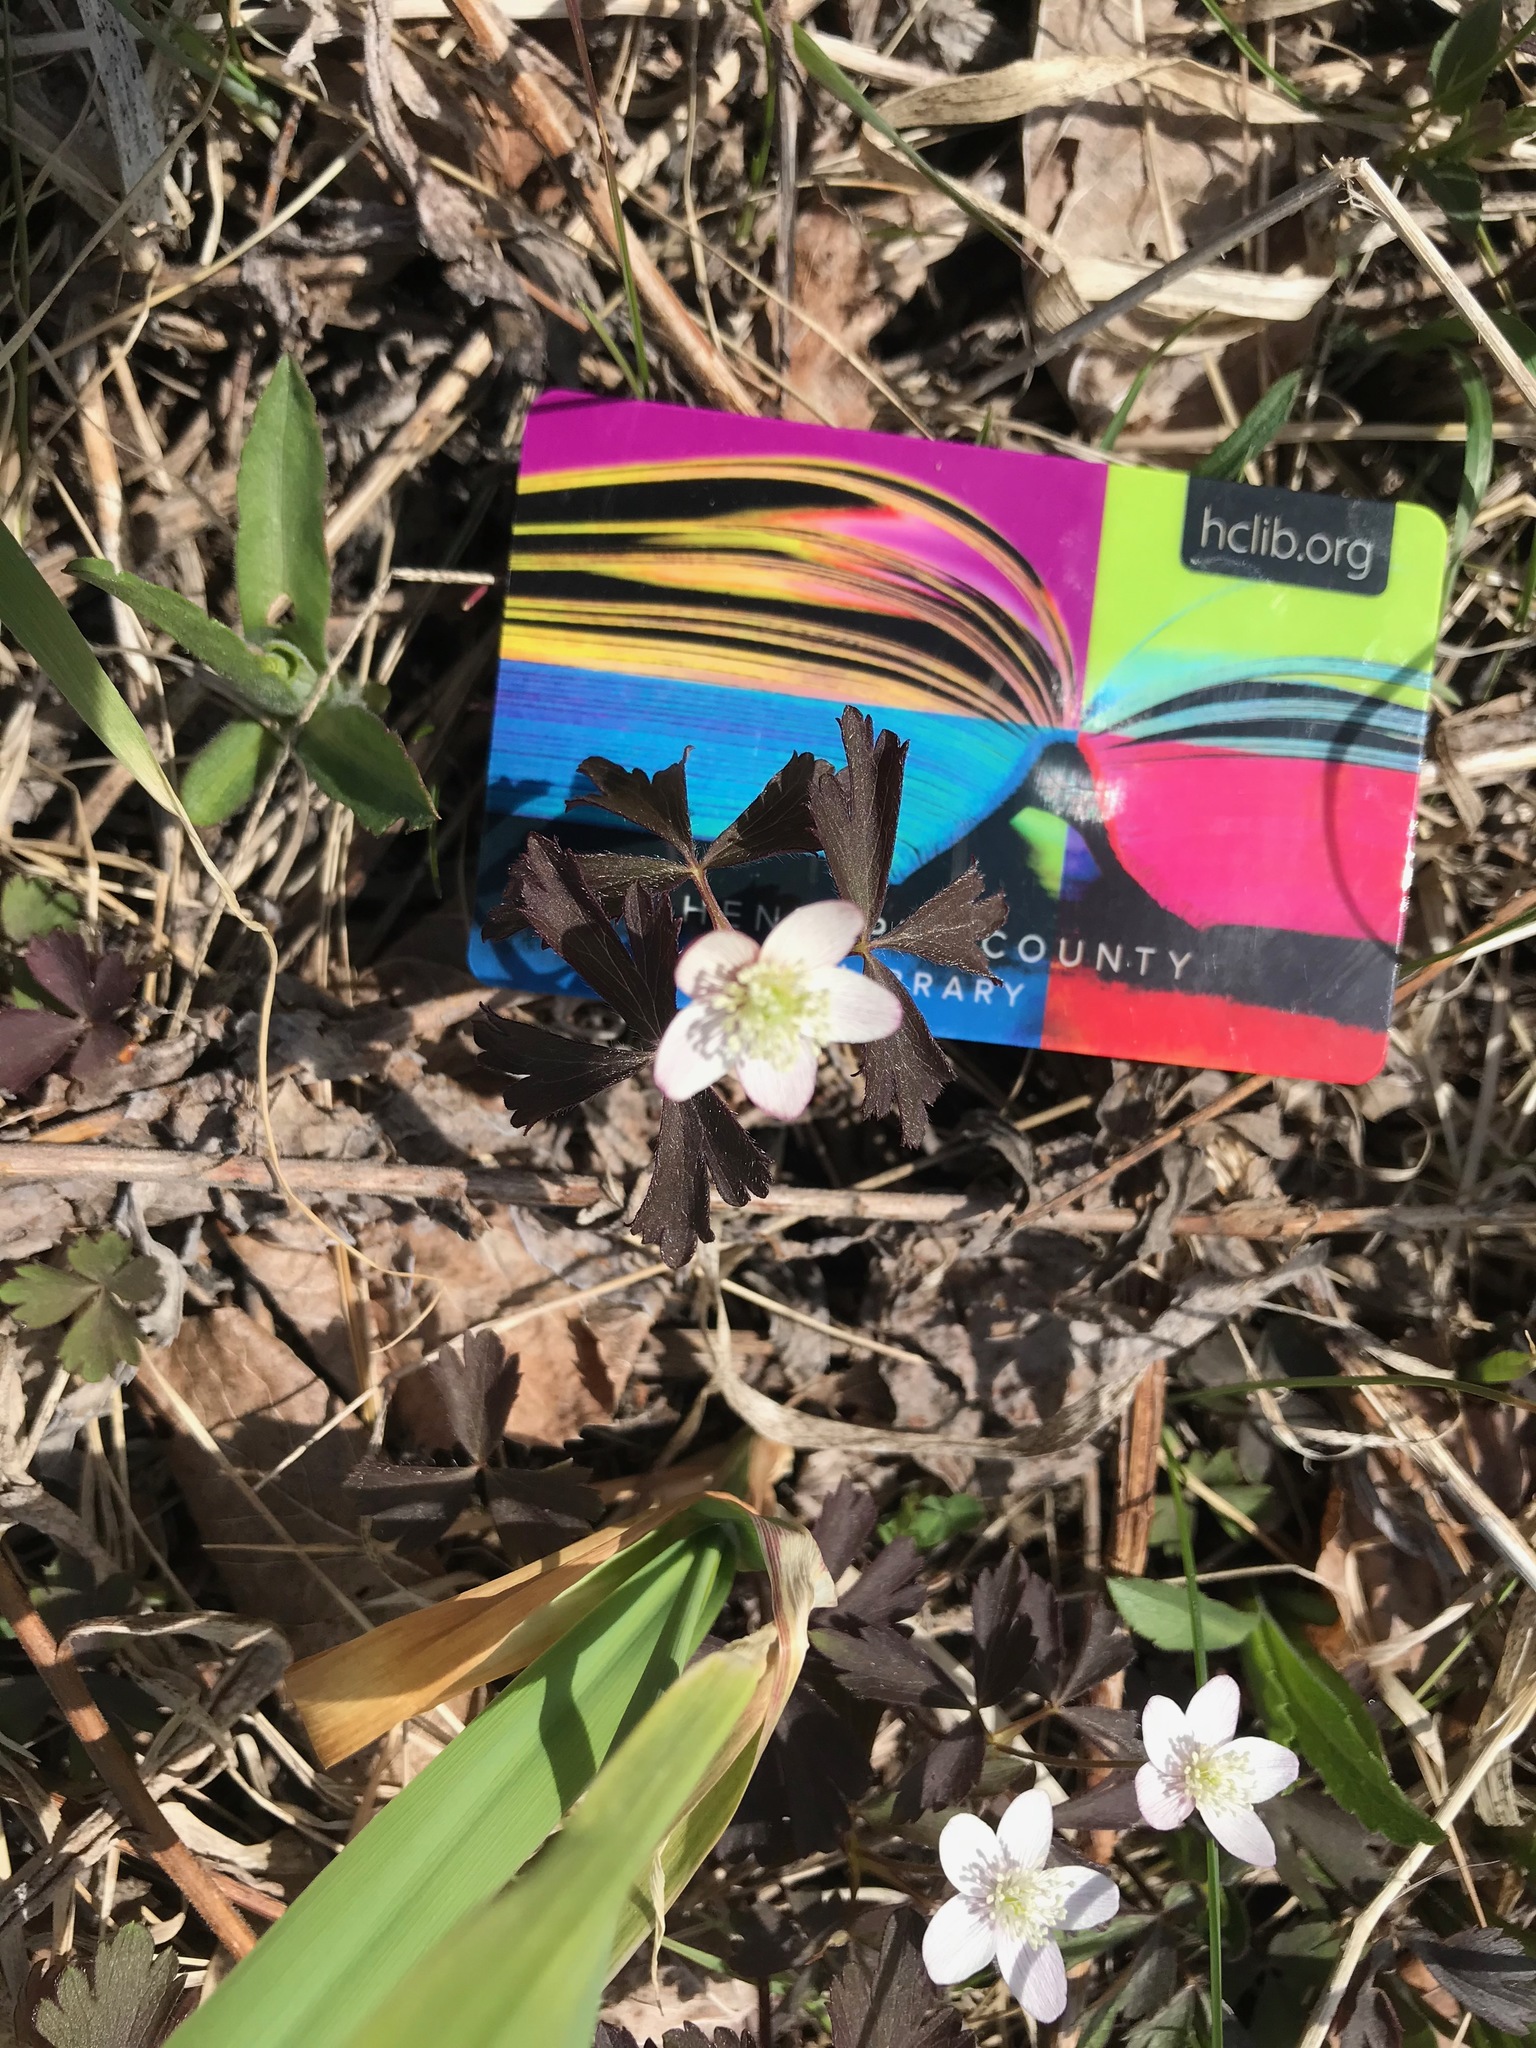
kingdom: Plantae
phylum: Tracheophyta
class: Magnoliopsida
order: Ranunculales
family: Ranunculaceae
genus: Anemone
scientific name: Anemone quinquefolia
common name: Wood anemone
